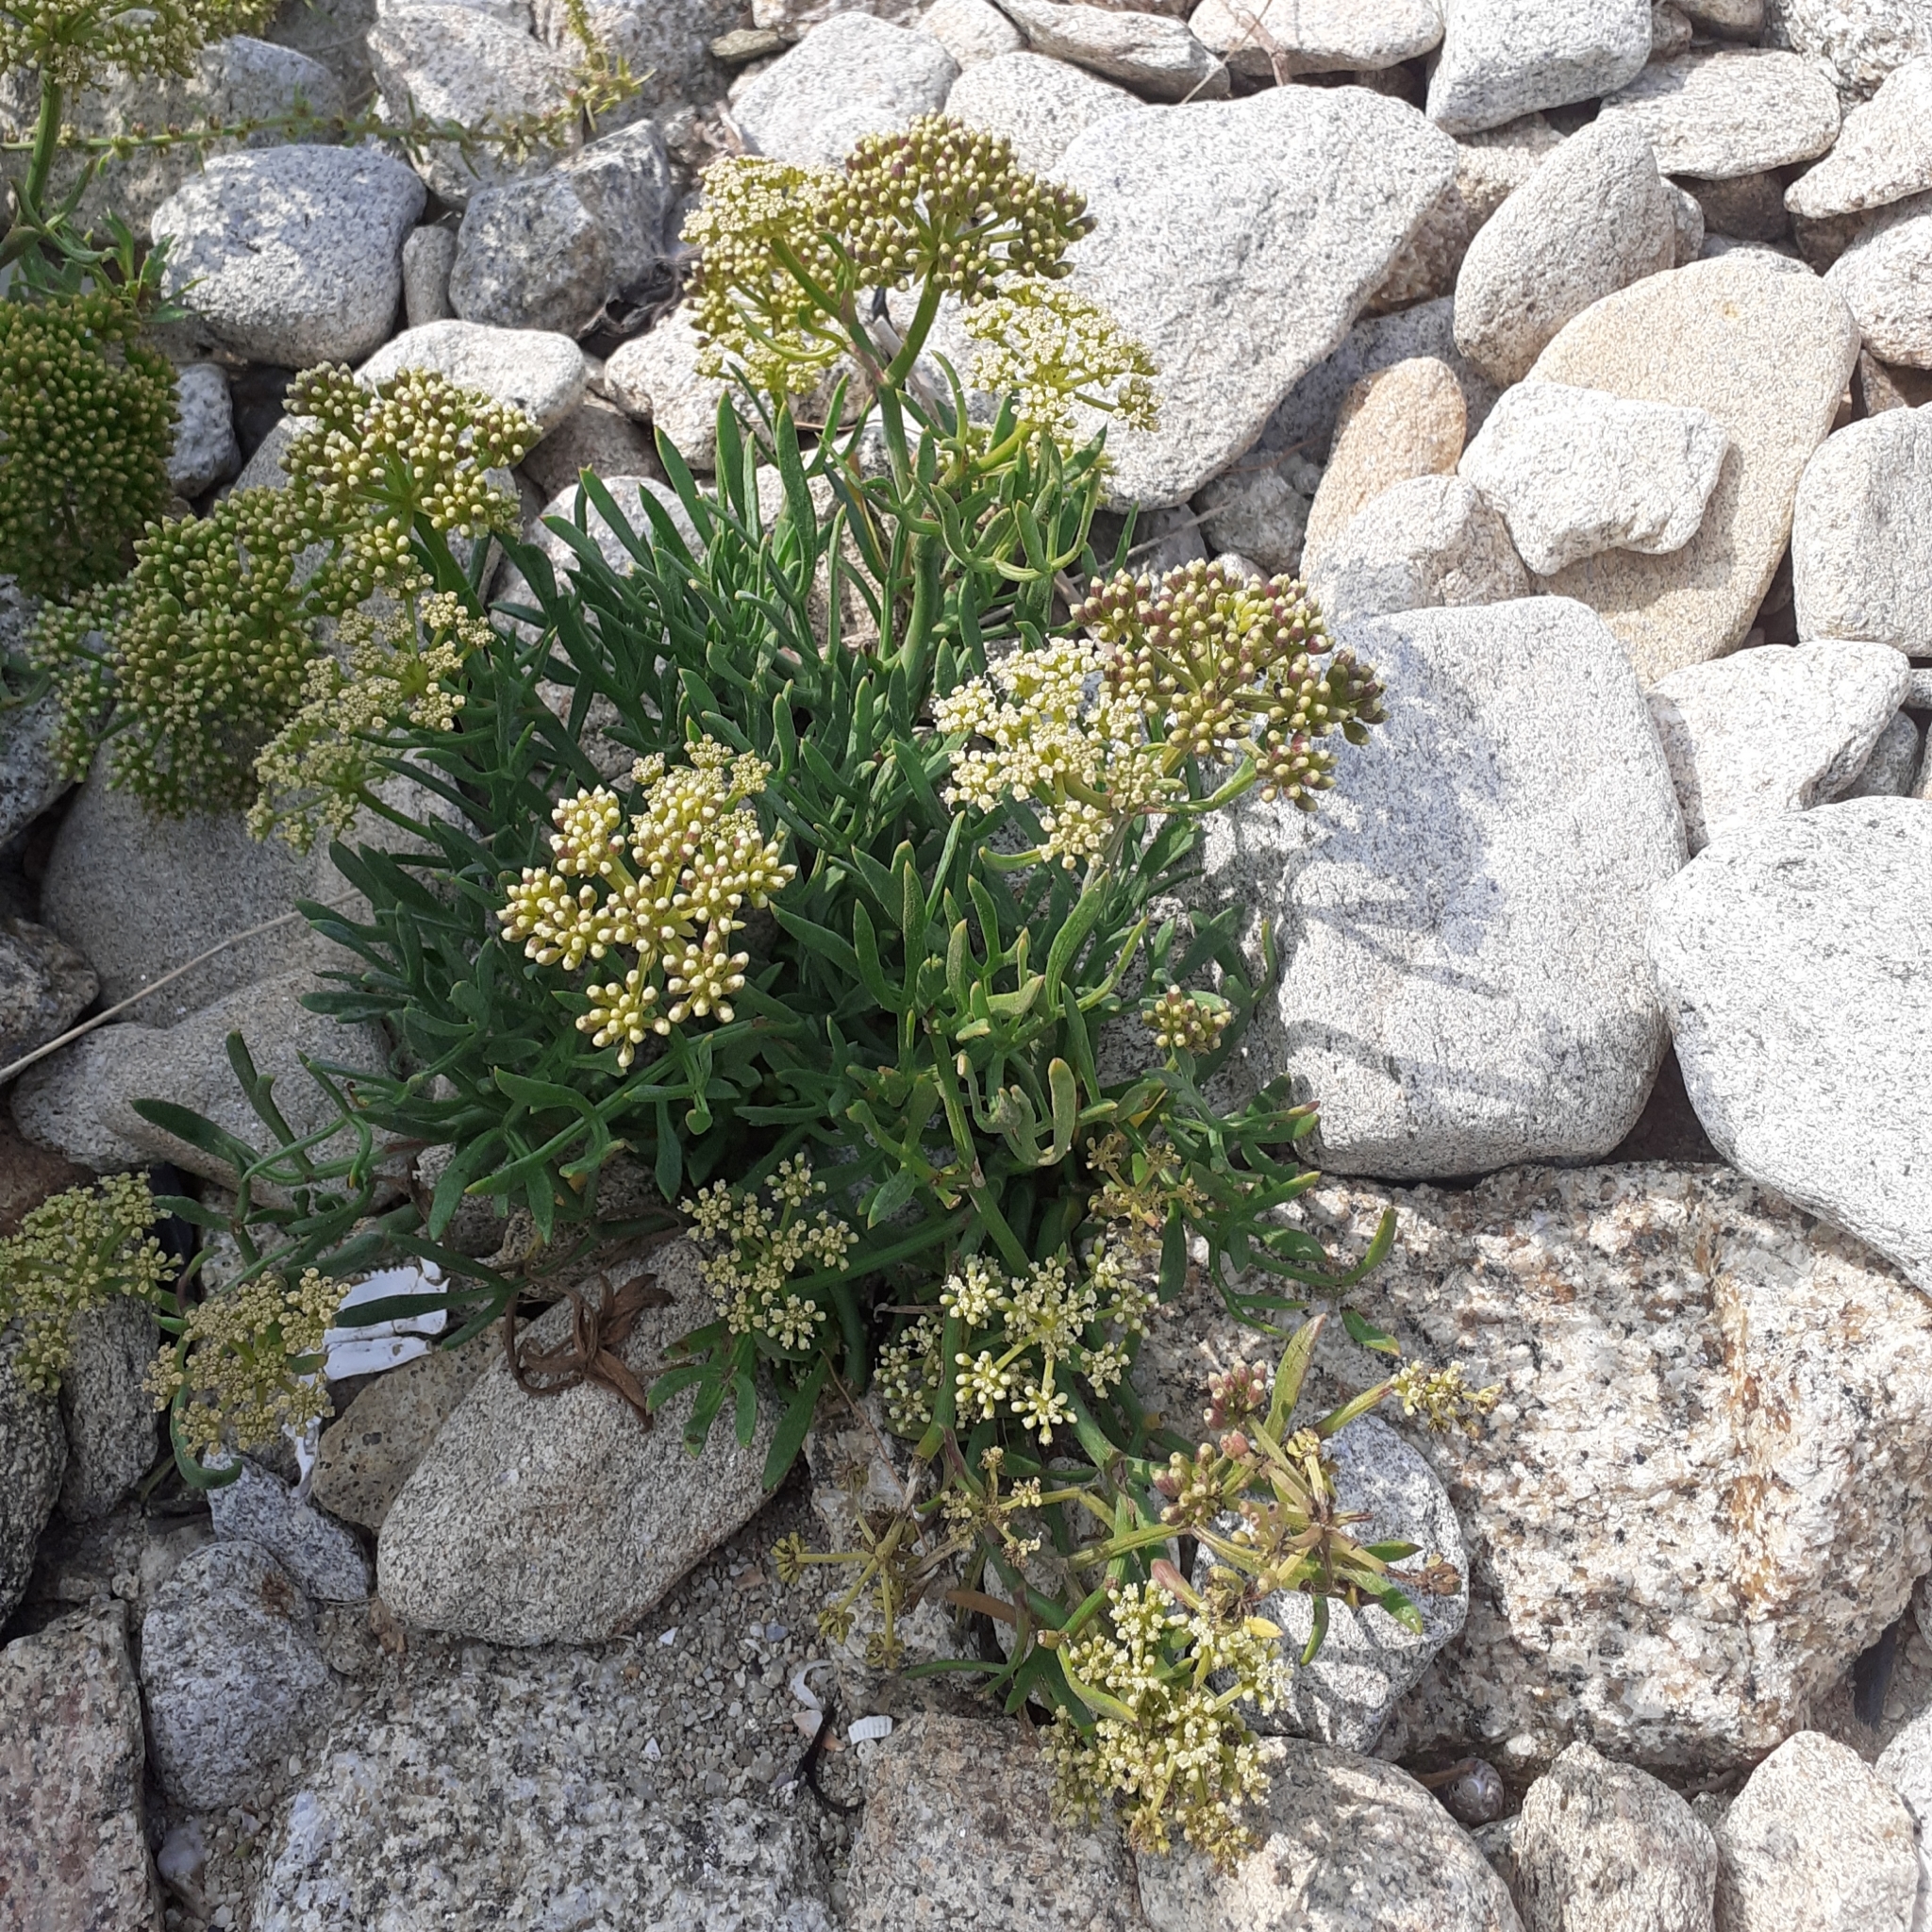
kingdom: Plantae
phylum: Tracheophyta
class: Magnoliopsida
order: Apiales
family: Apiaceae
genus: Crithmum
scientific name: Crithmum maritimum
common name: Rock samphire
